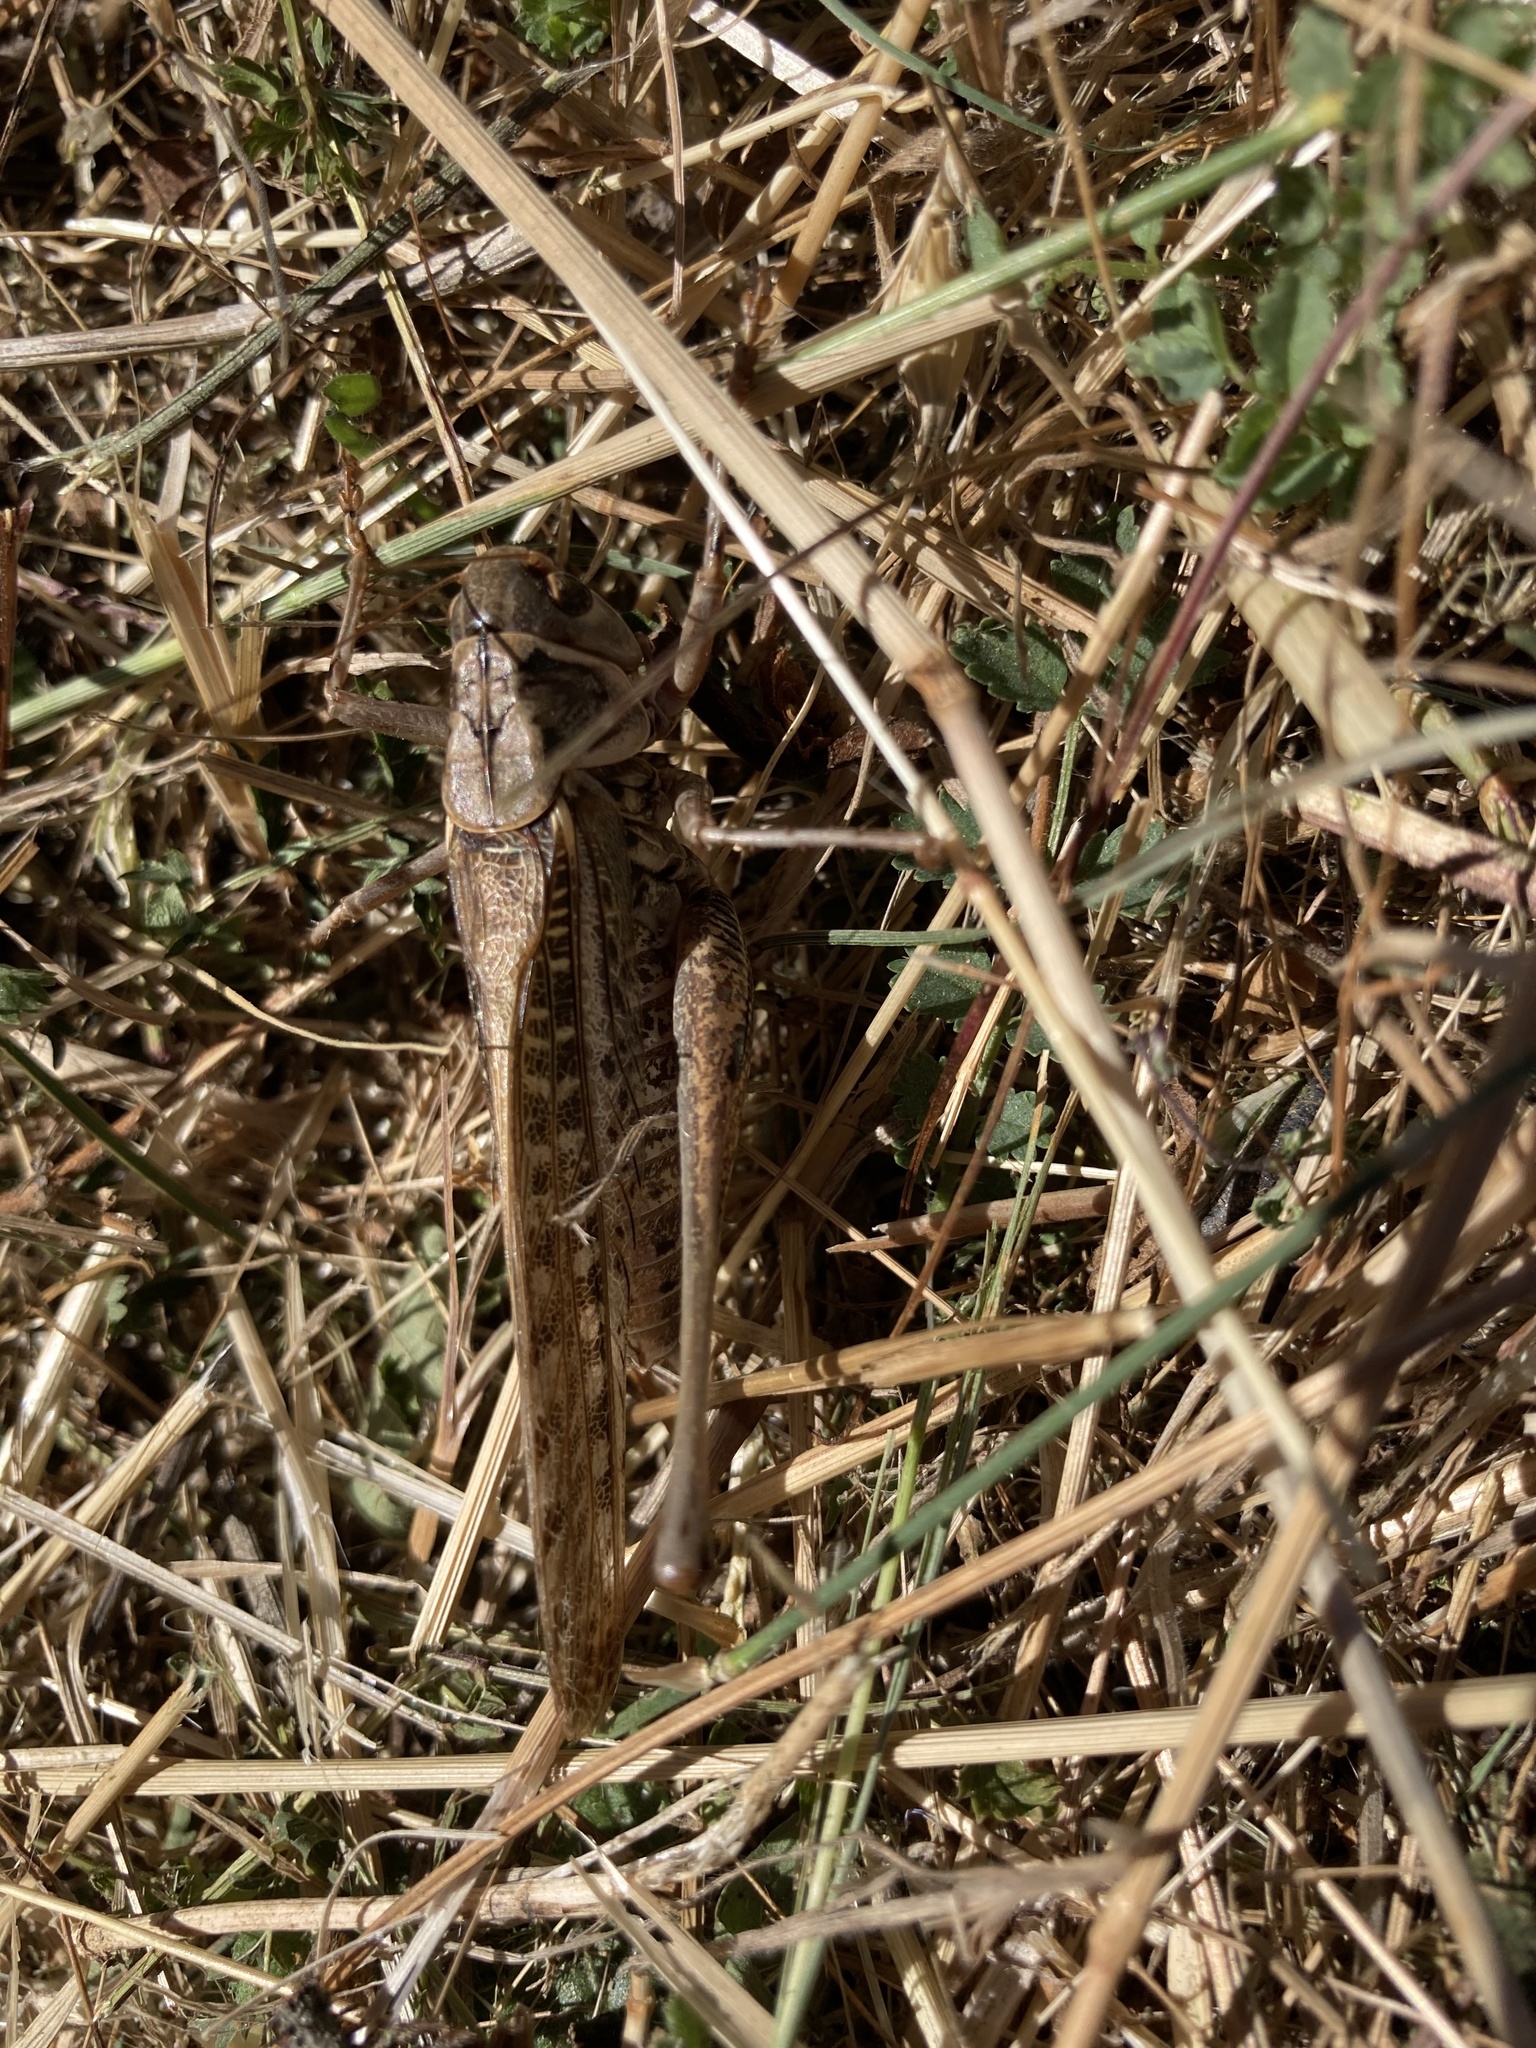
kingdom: Animalia
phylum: Arthropoda
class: Insecta
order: Orthoptera
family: Tettigoniidae
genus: Decticus
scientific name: Decticus albifrons
